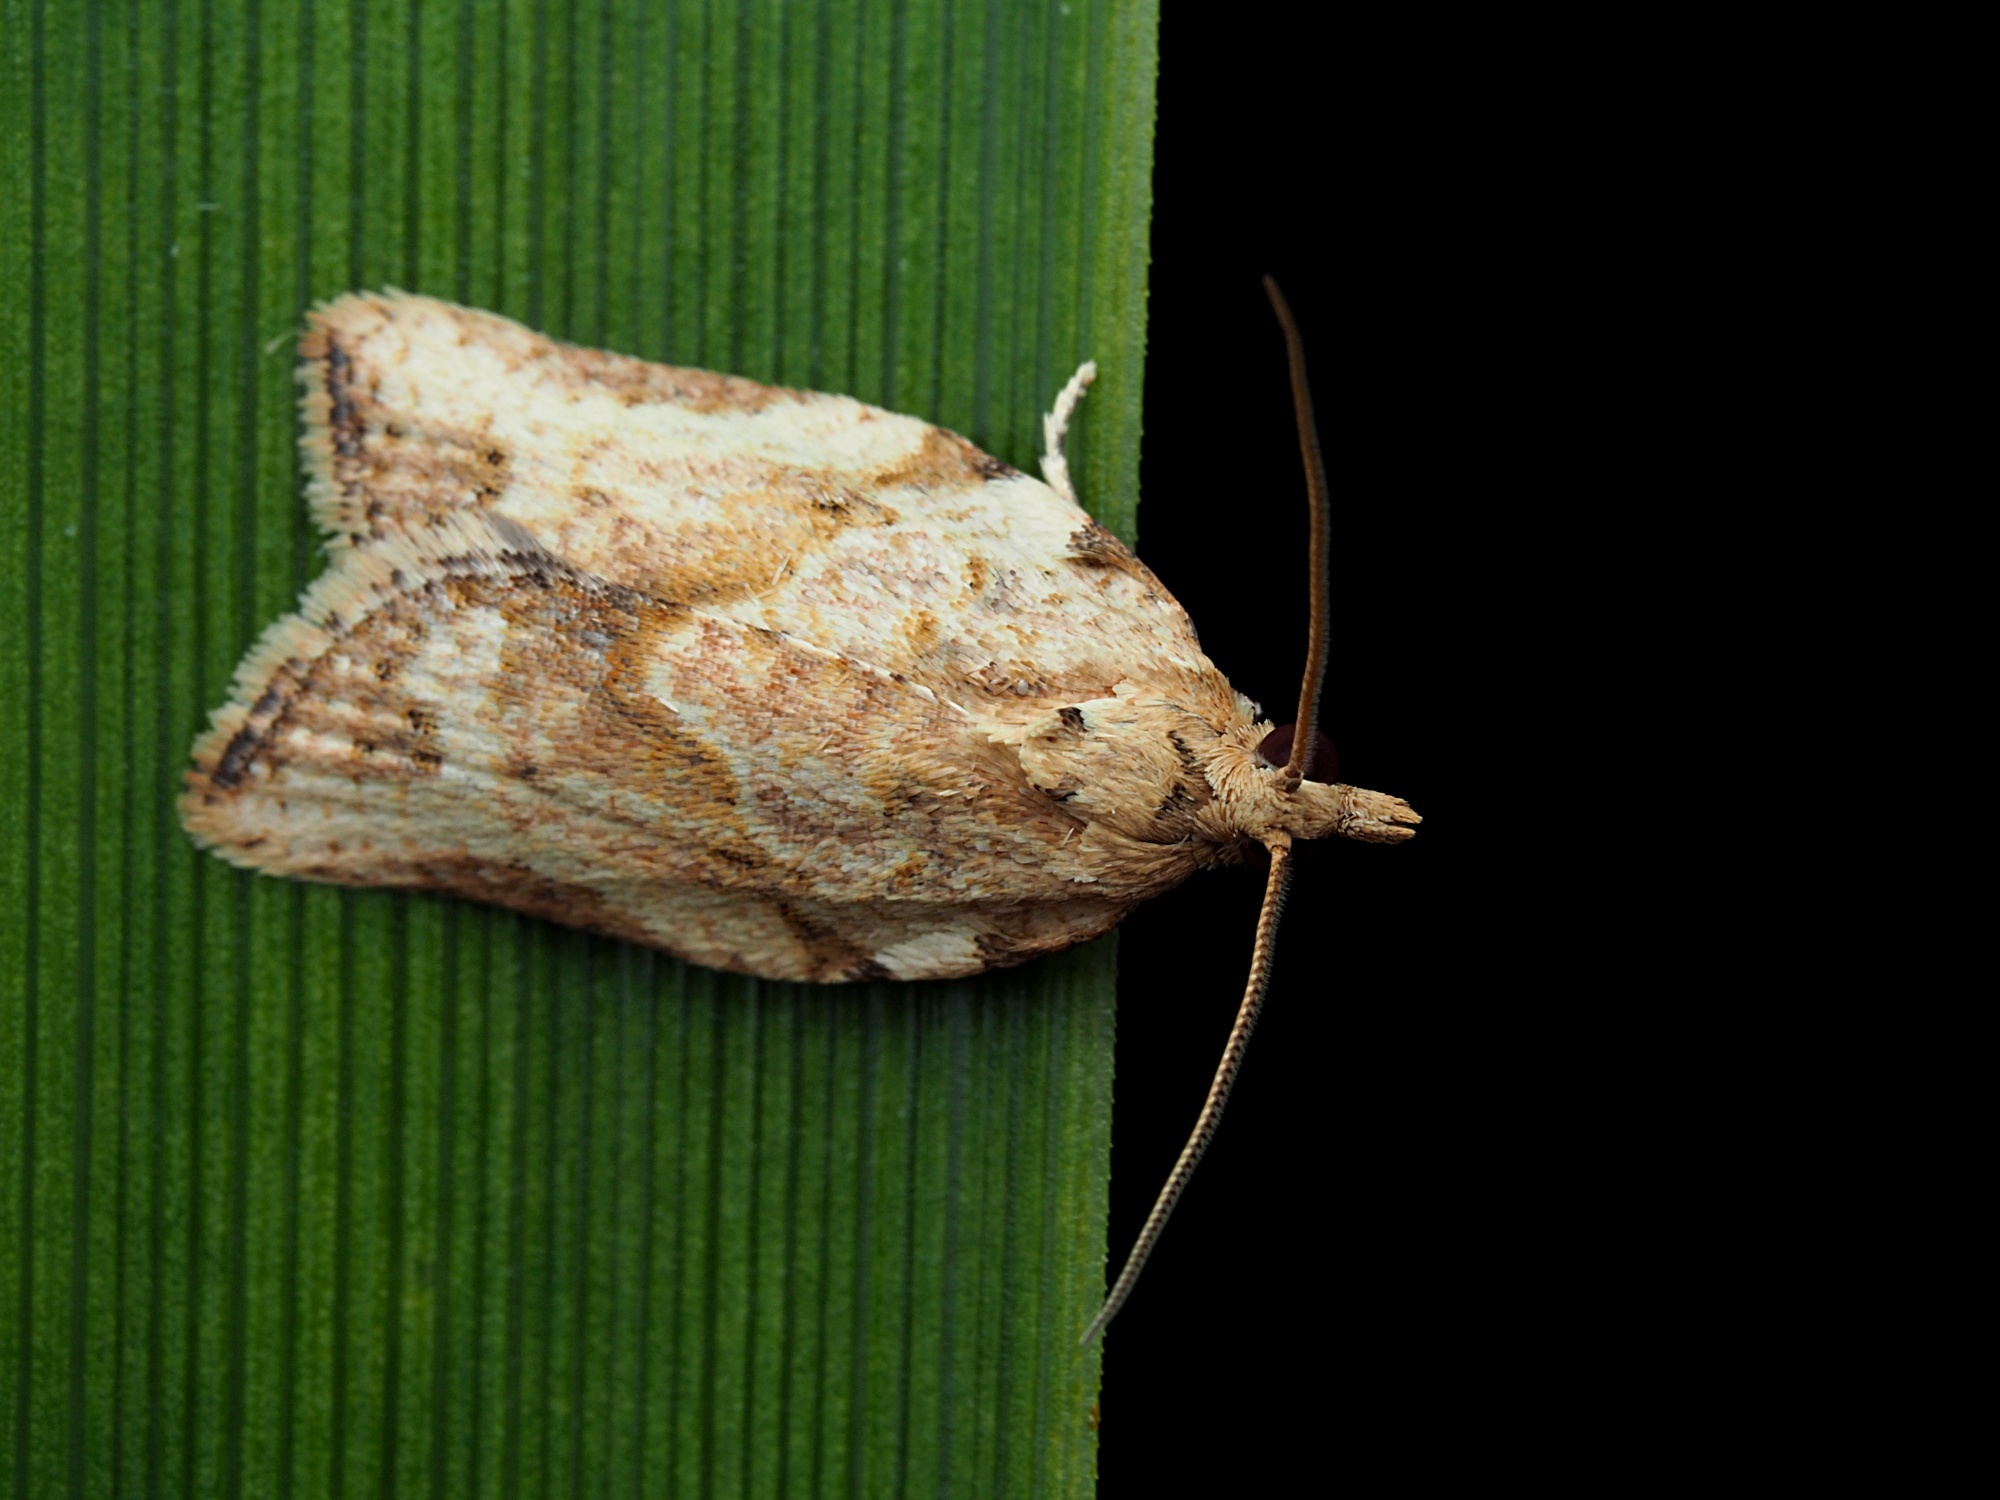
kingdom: Animalia
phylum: Arthropoda
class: Insecta
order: Lepidoptera
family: Tortricidae
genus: Epiphyas
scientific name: Epiphyas postvittana
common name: Light brown apple moth
